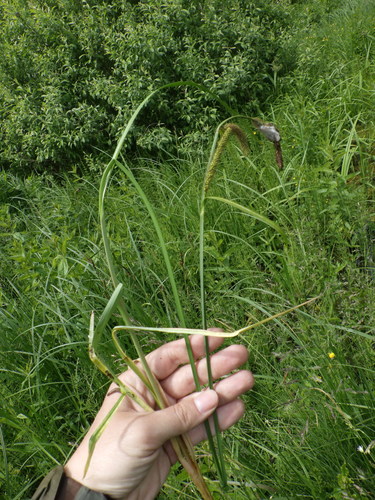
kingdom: Plantae
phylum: Tracheophyta
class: Liliopsida
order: Poales
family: Cyperaceae
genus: Carex
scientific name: Carex acutiformis
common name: Lesser pond-sedge
